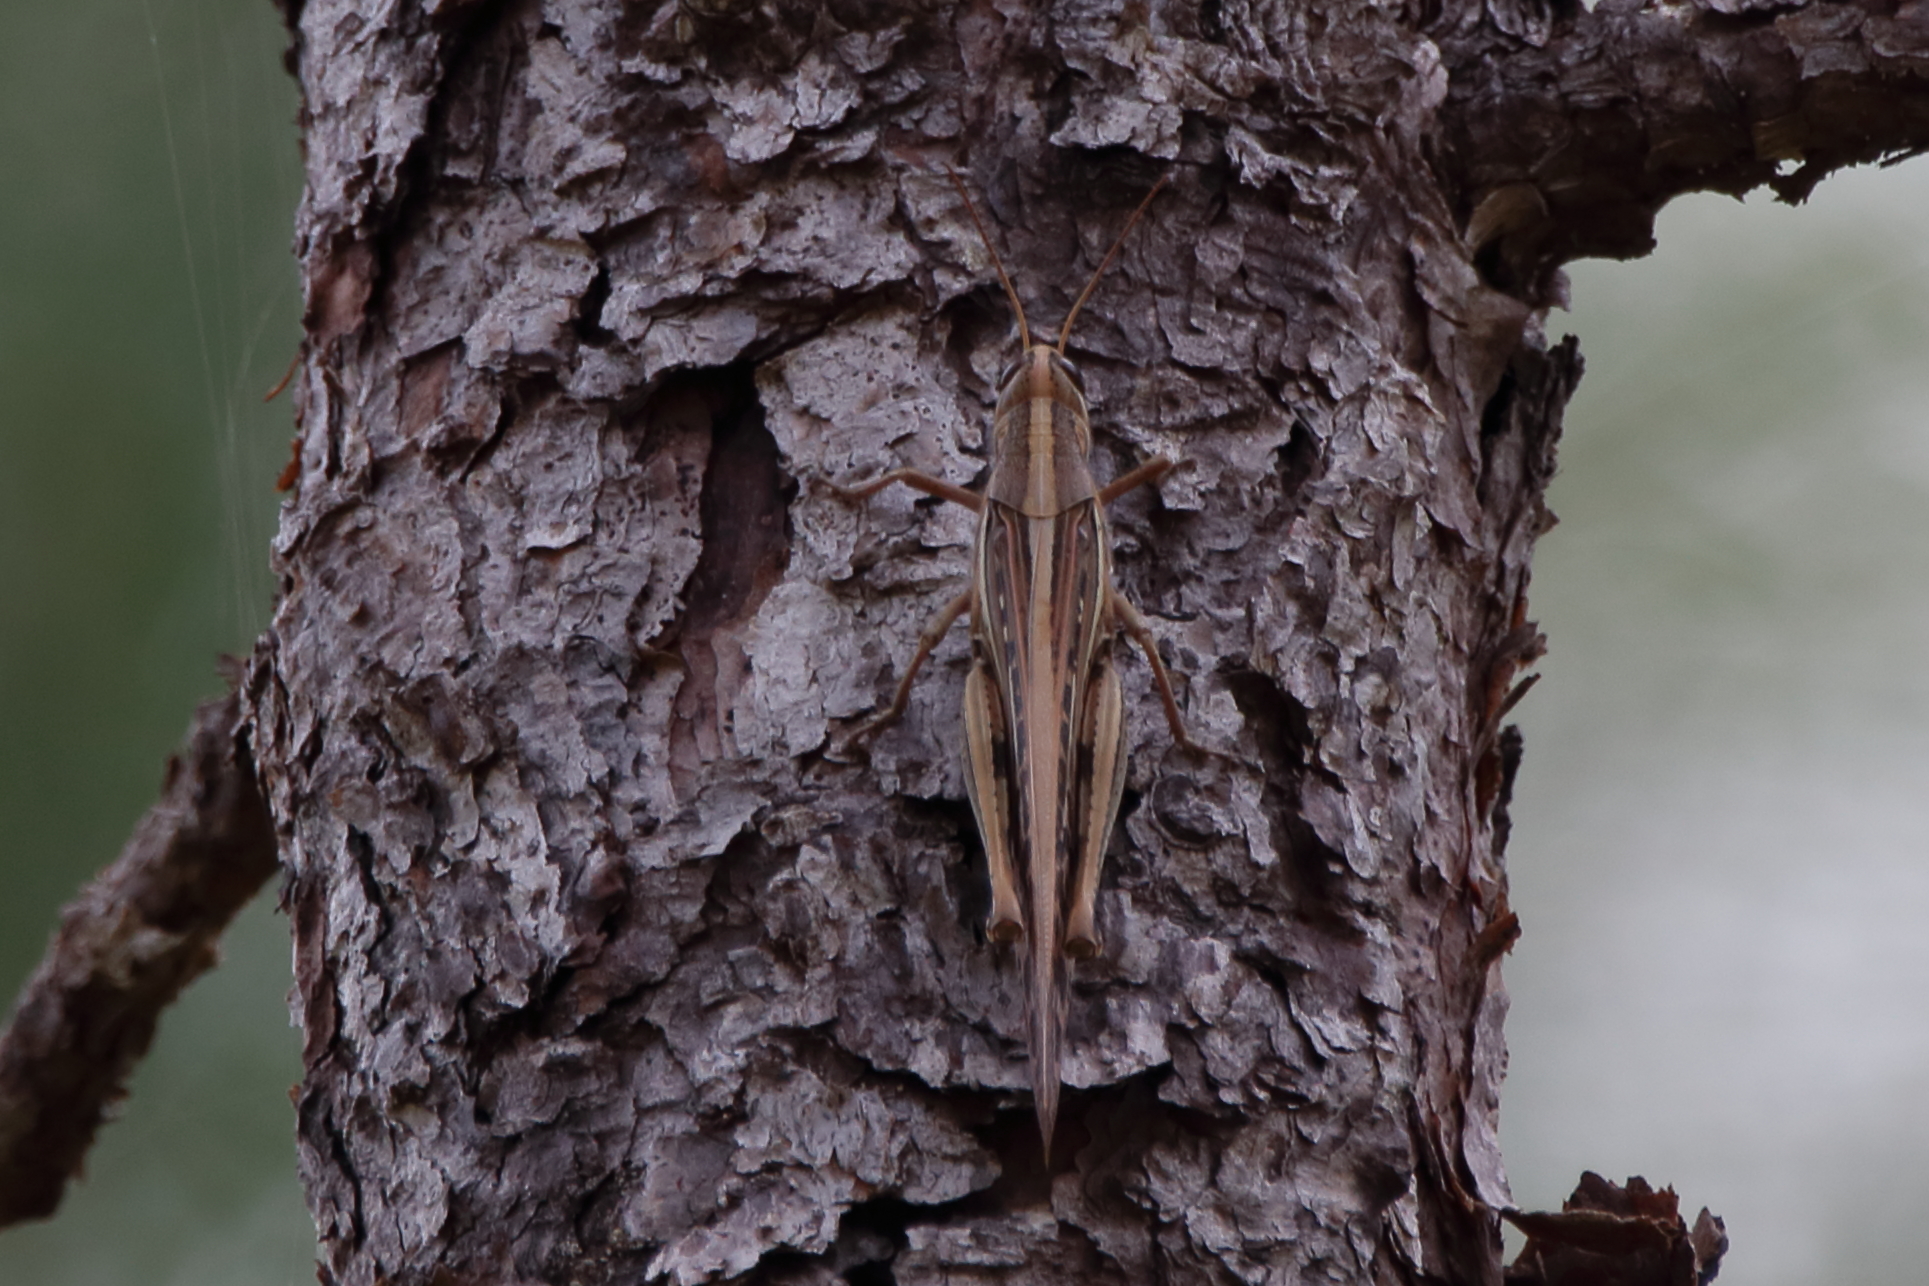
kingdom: Animalia
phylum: Arthropoda
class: Insecta
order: Orthoptera
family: Acrididae
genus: Schistocerca
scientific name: Schistocerca americana
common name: American bird locust
